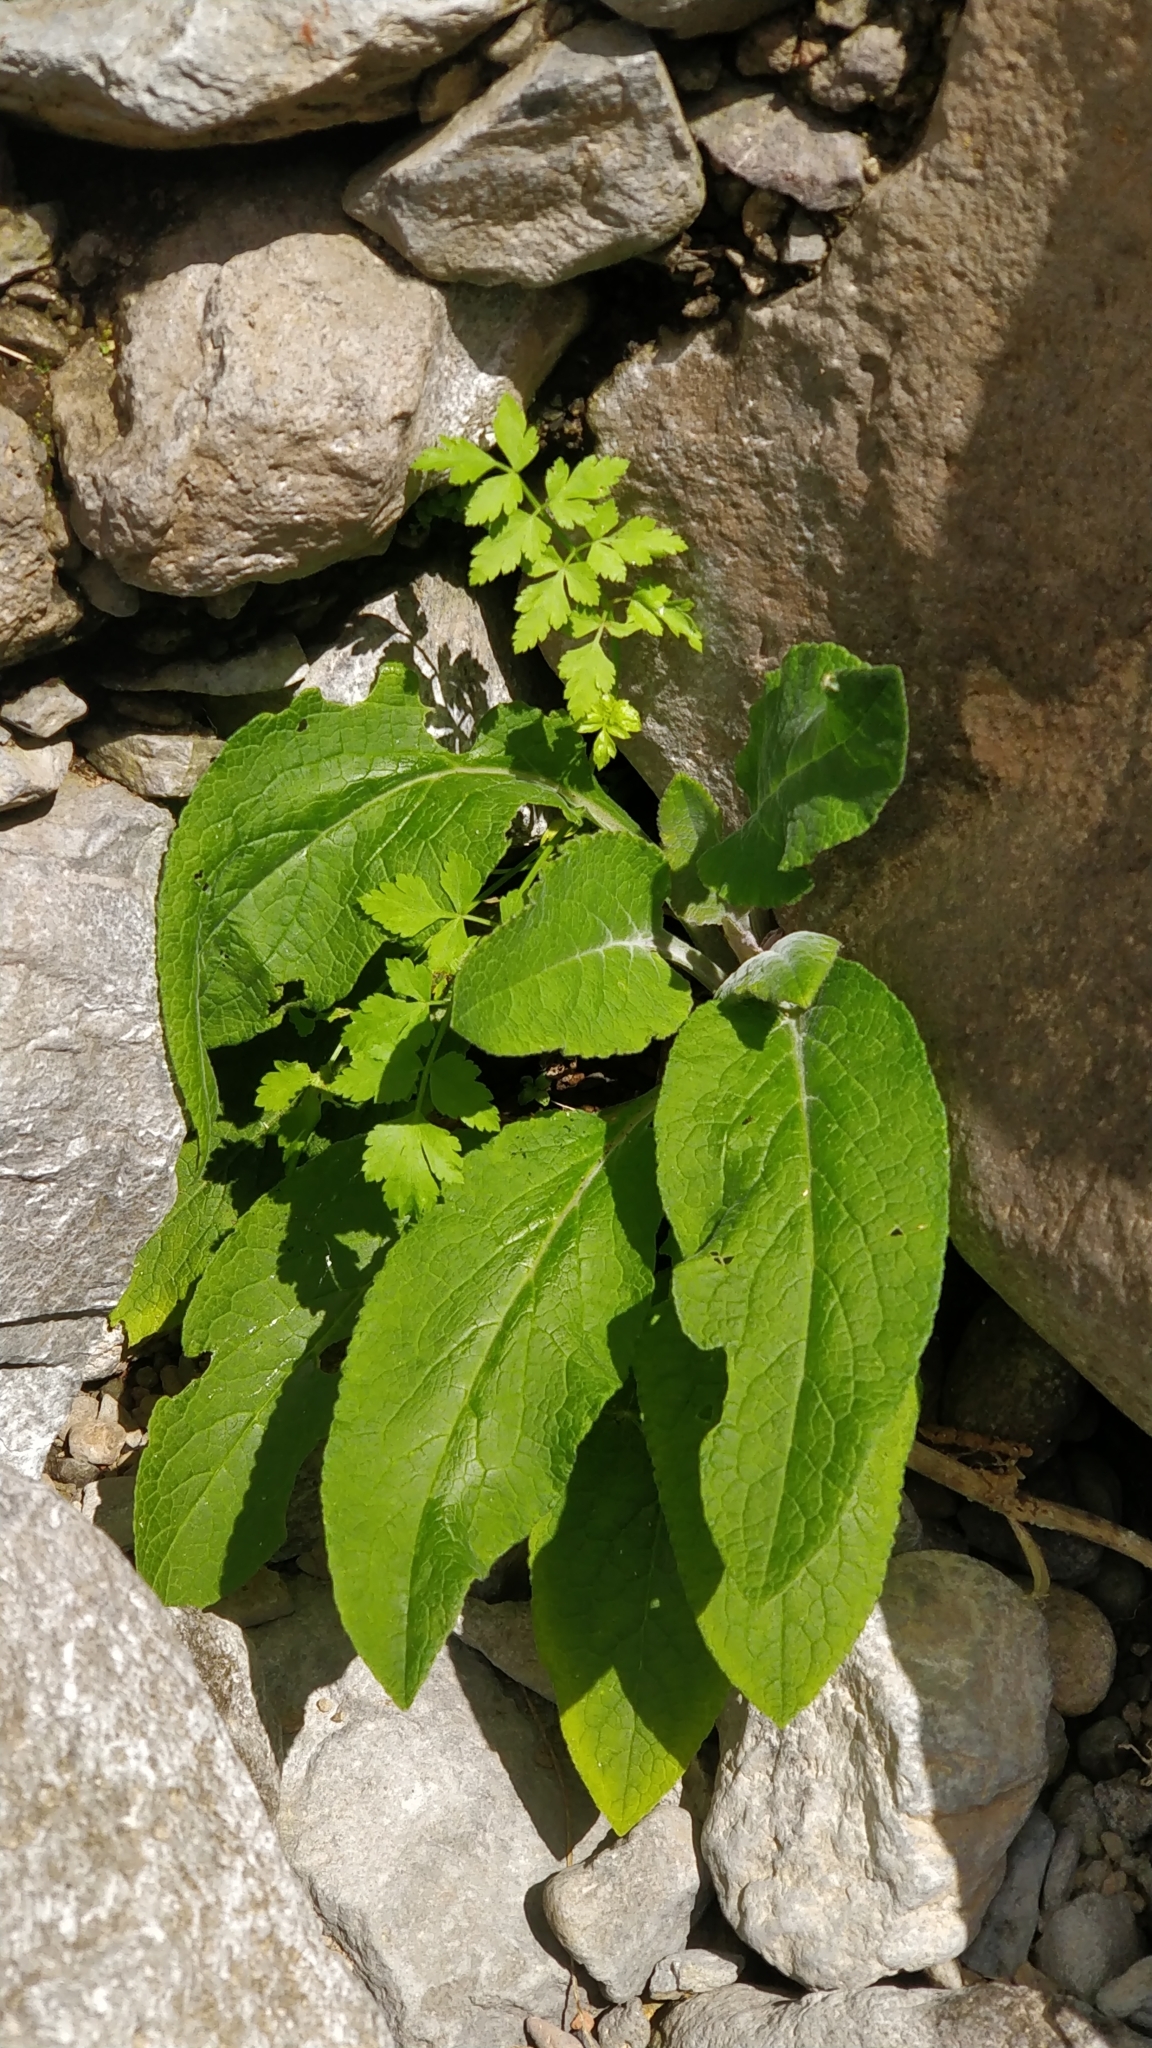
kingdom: Plantae
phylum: Tracheophyta
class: Magnoliopsida
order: Lamiales
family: Plantaginaceae
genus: Digitalis
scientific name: Digitalis purpurea
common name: Foxglove
